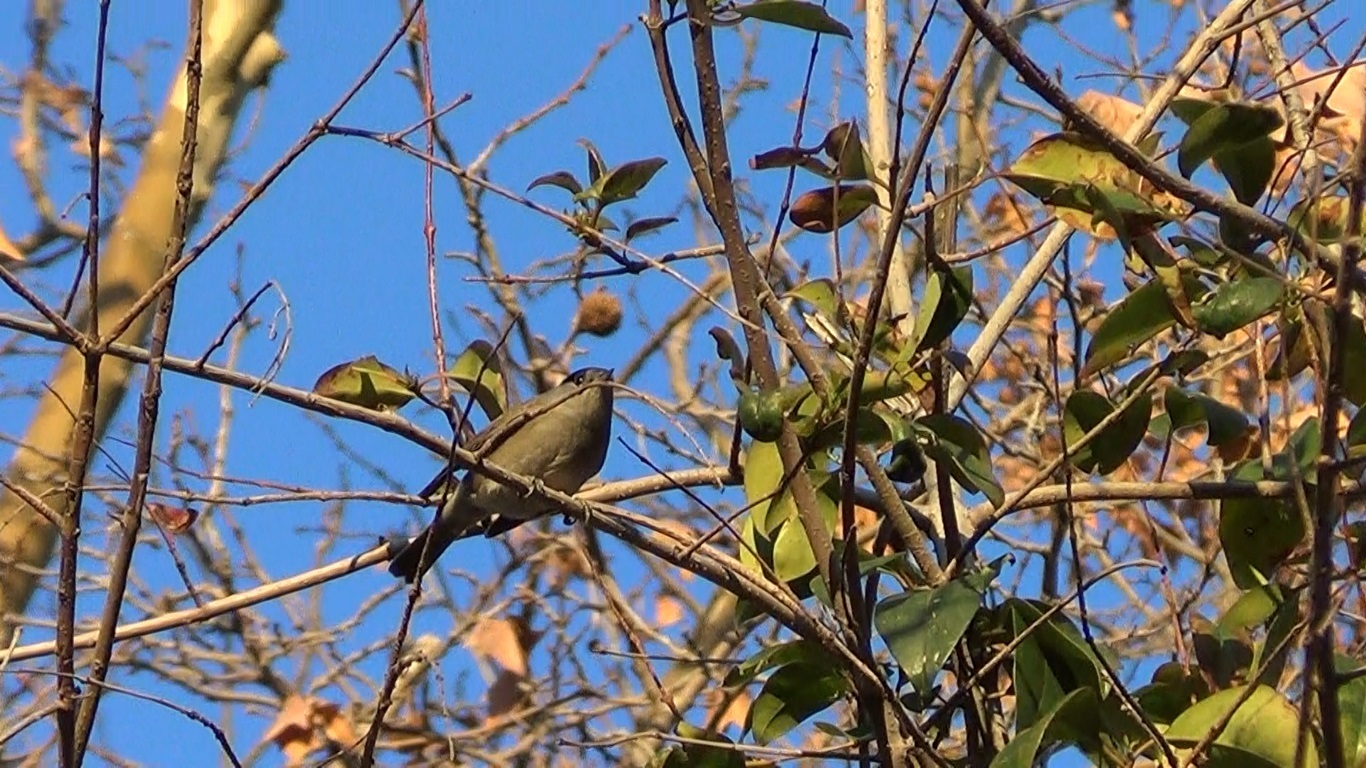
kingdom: Animalia
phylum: Chordata
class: Aves
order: Passeriformes
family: Sylviidae
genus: Sylvia
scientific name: Sylvia atricapilla
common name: Eurasian blackcap
